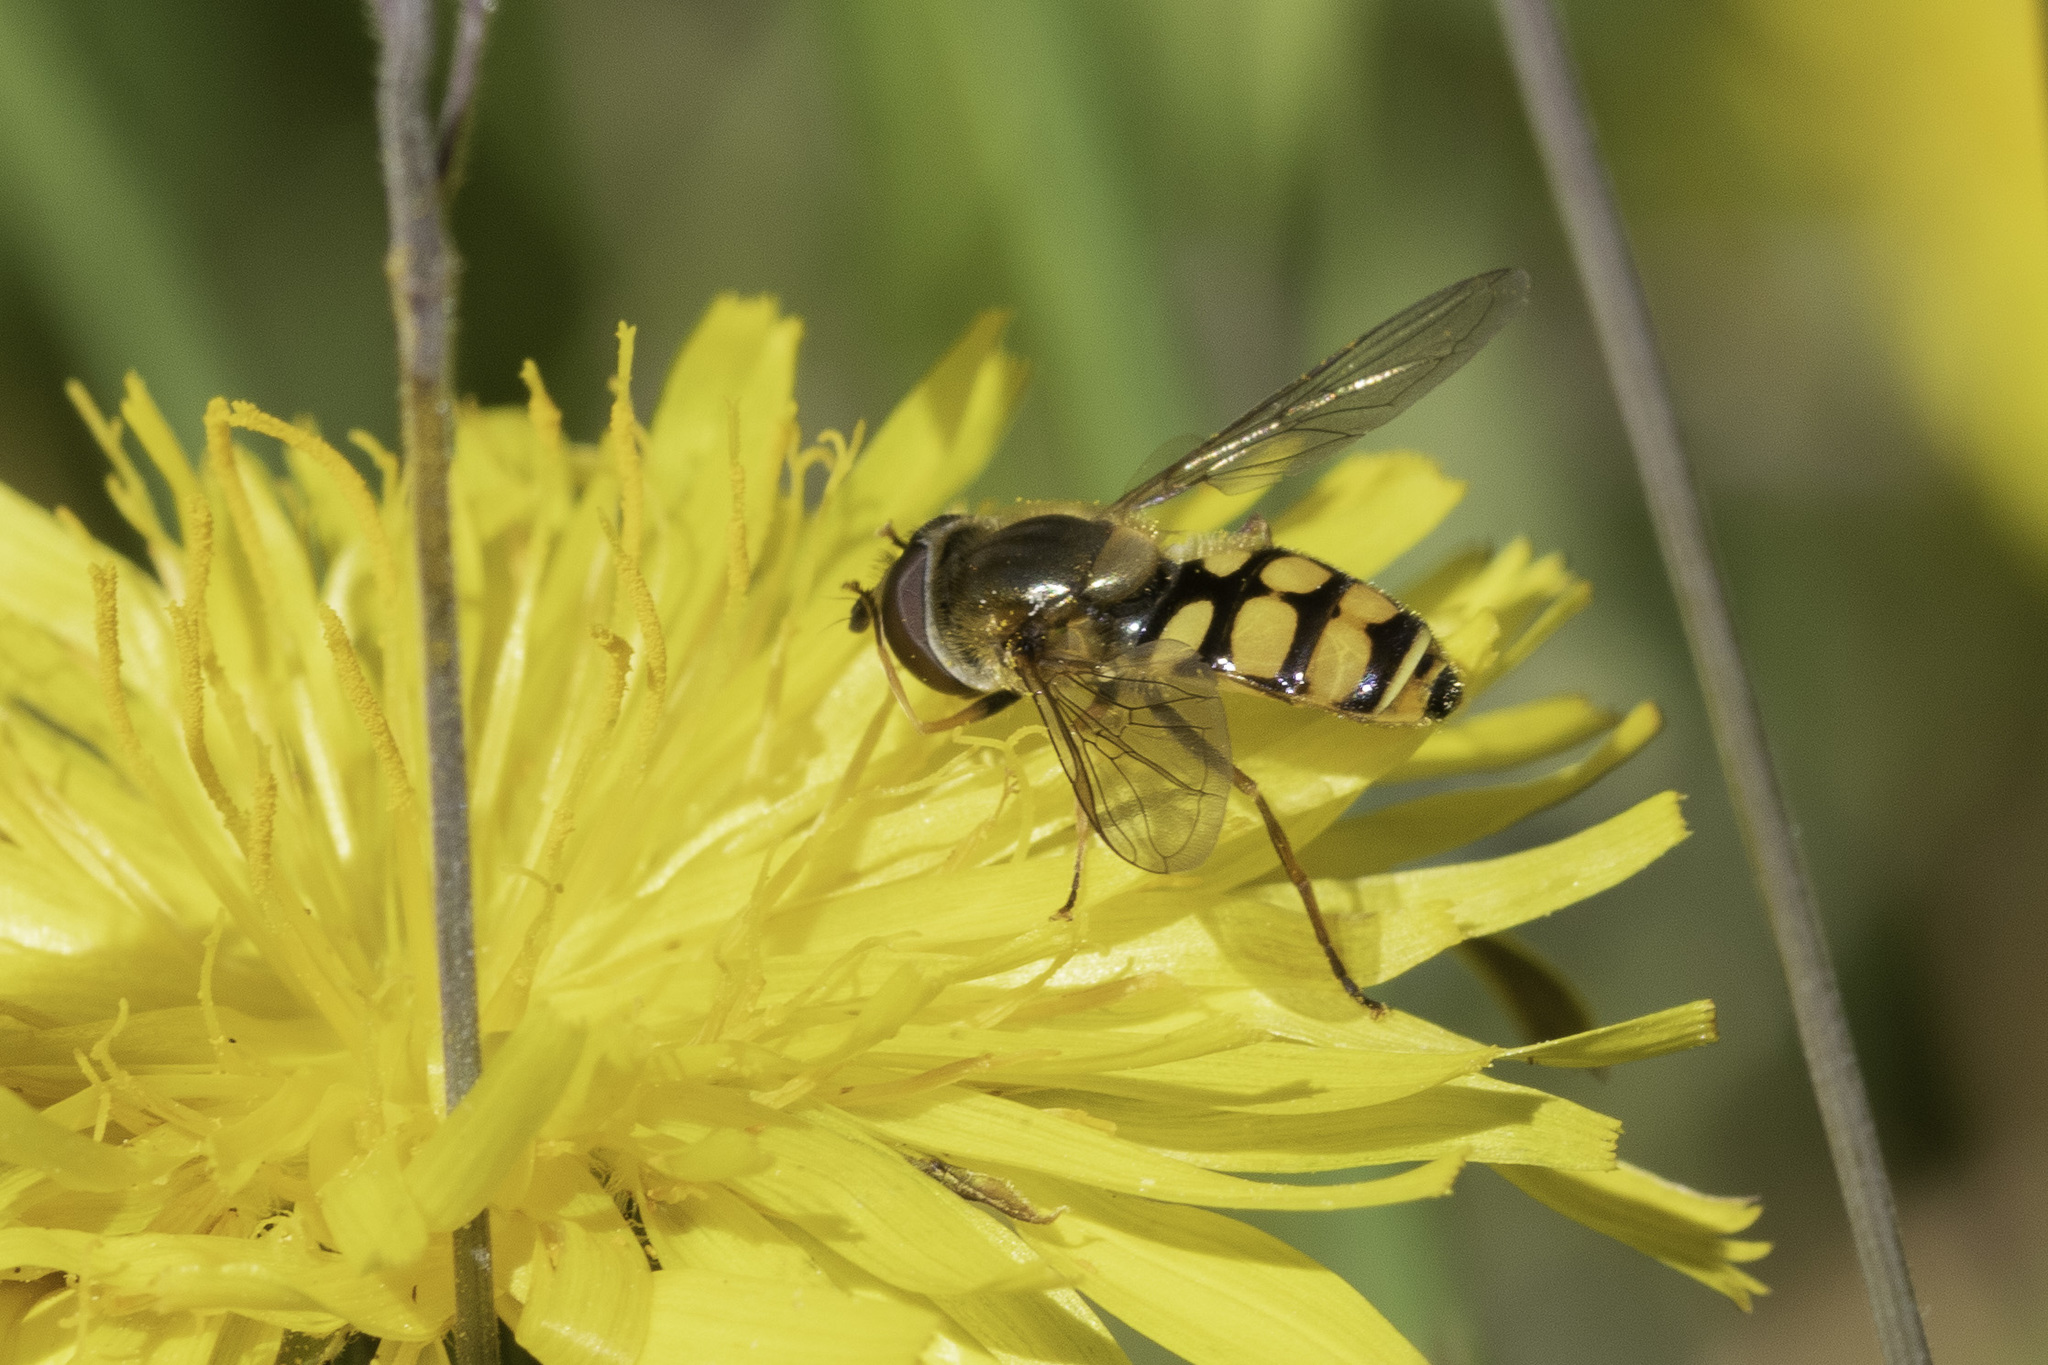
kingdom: Animalia
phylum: Arthropoda
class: Insecta
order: Diptera
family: Syrphidae
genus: Eupeodes
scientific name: Eupeodes corollae
